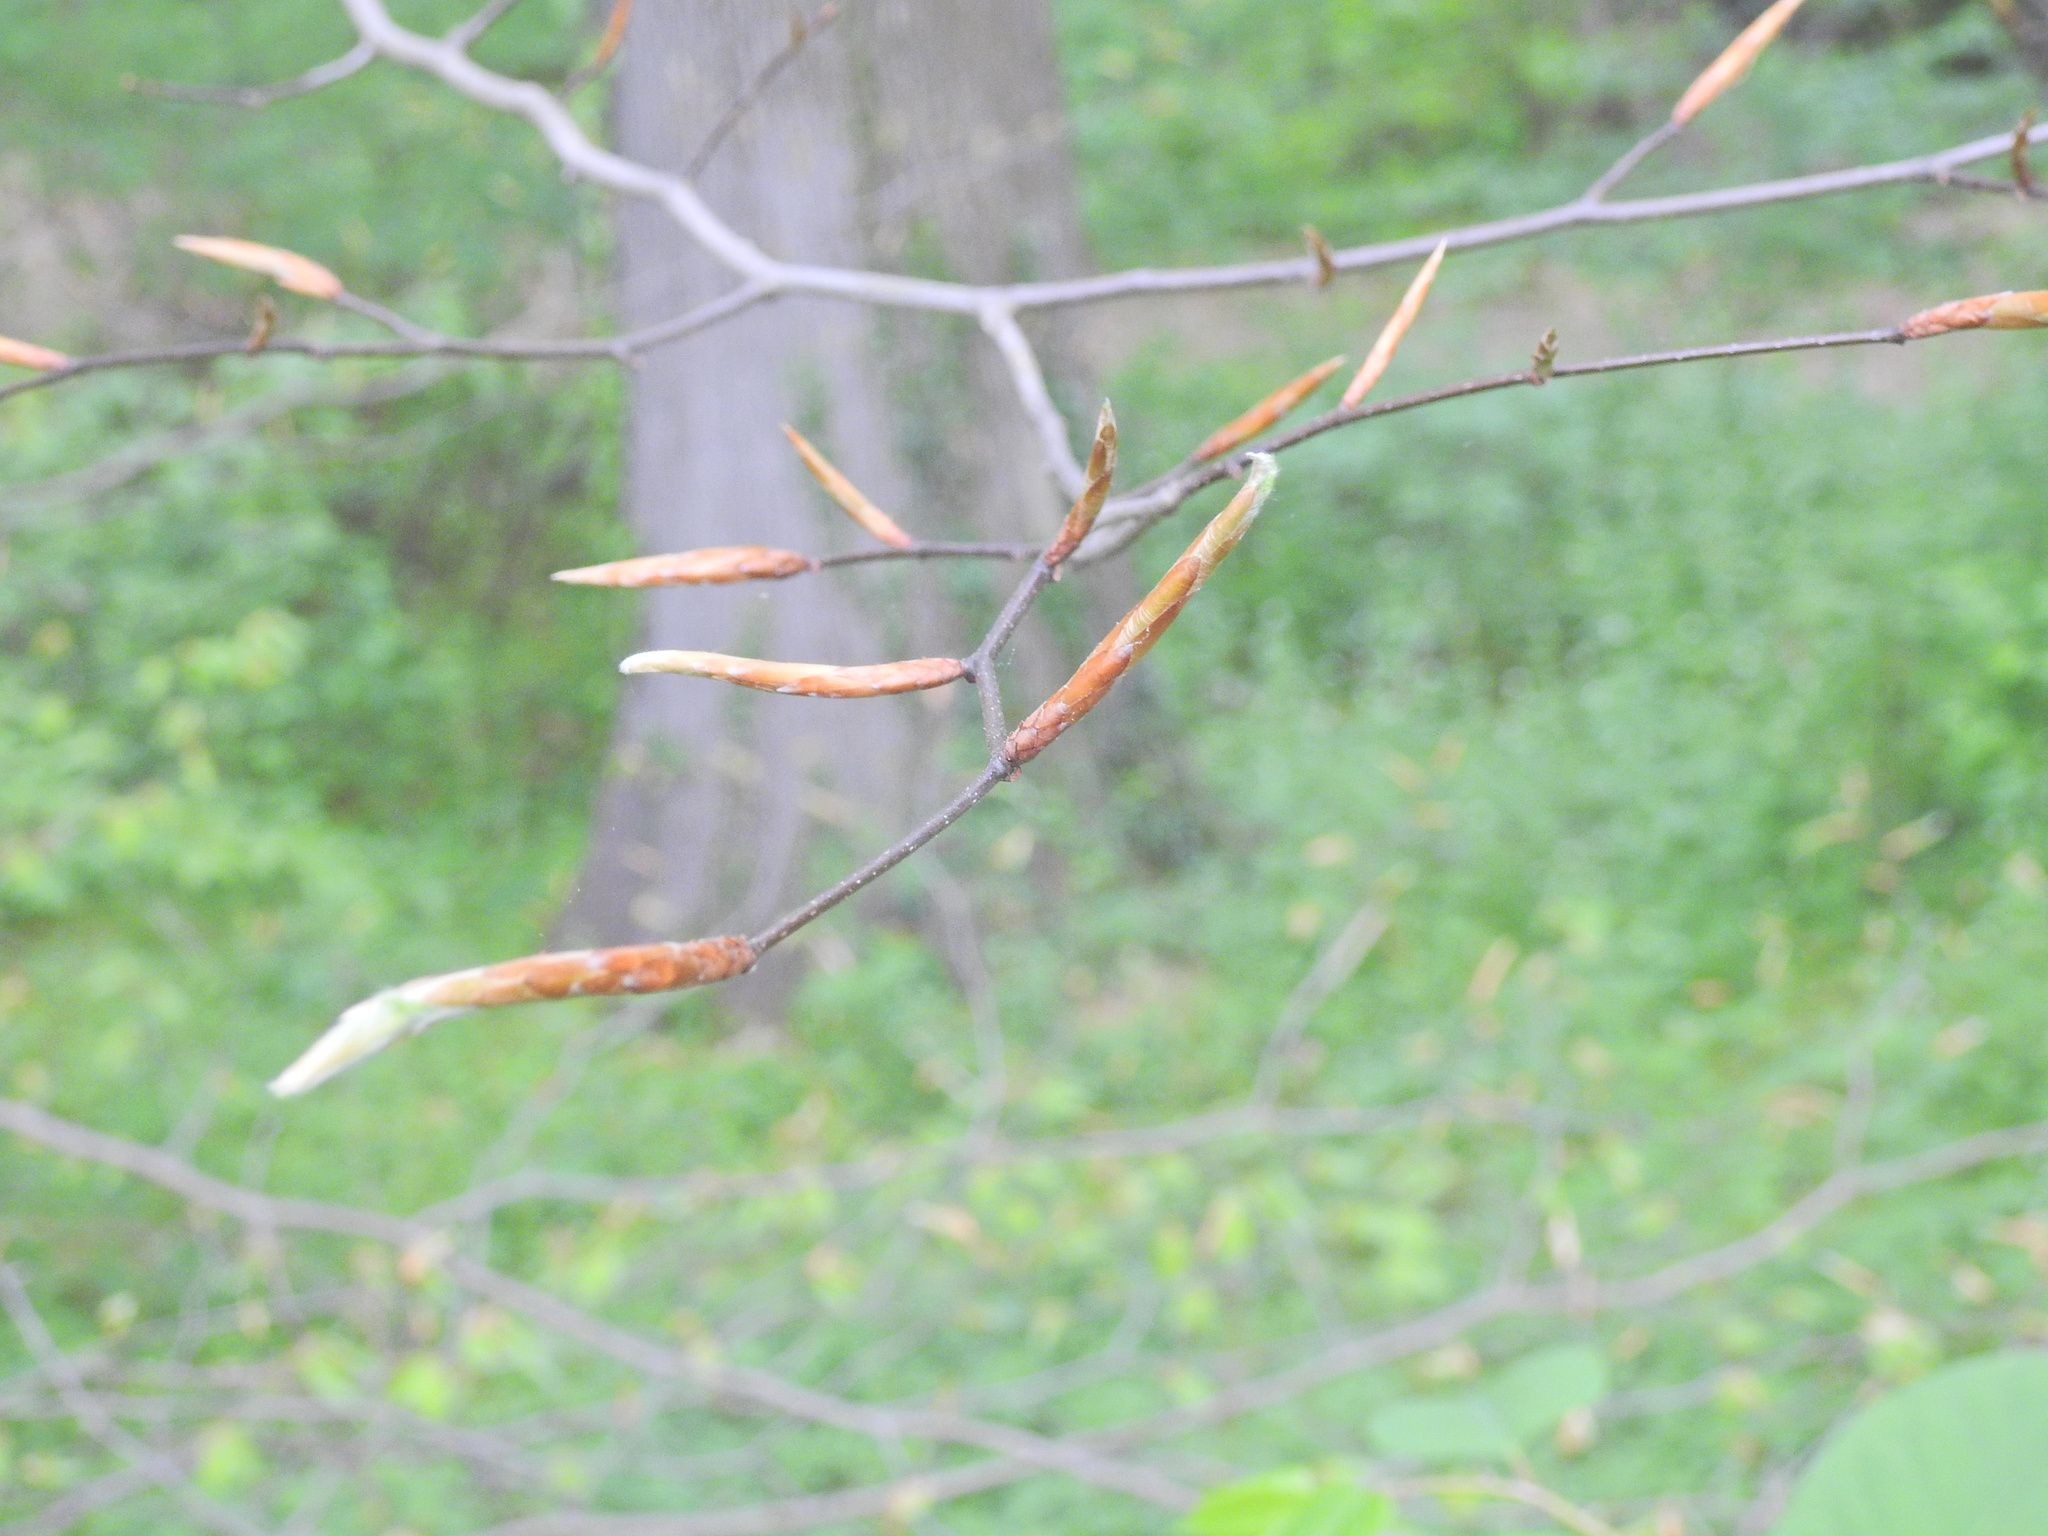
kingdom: Plantae
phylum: Tracheophyta
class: Magnoliopsida
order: Fagales
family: Fagaceae
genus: Fagus
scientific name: Fagus grandifolia
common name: American beech
